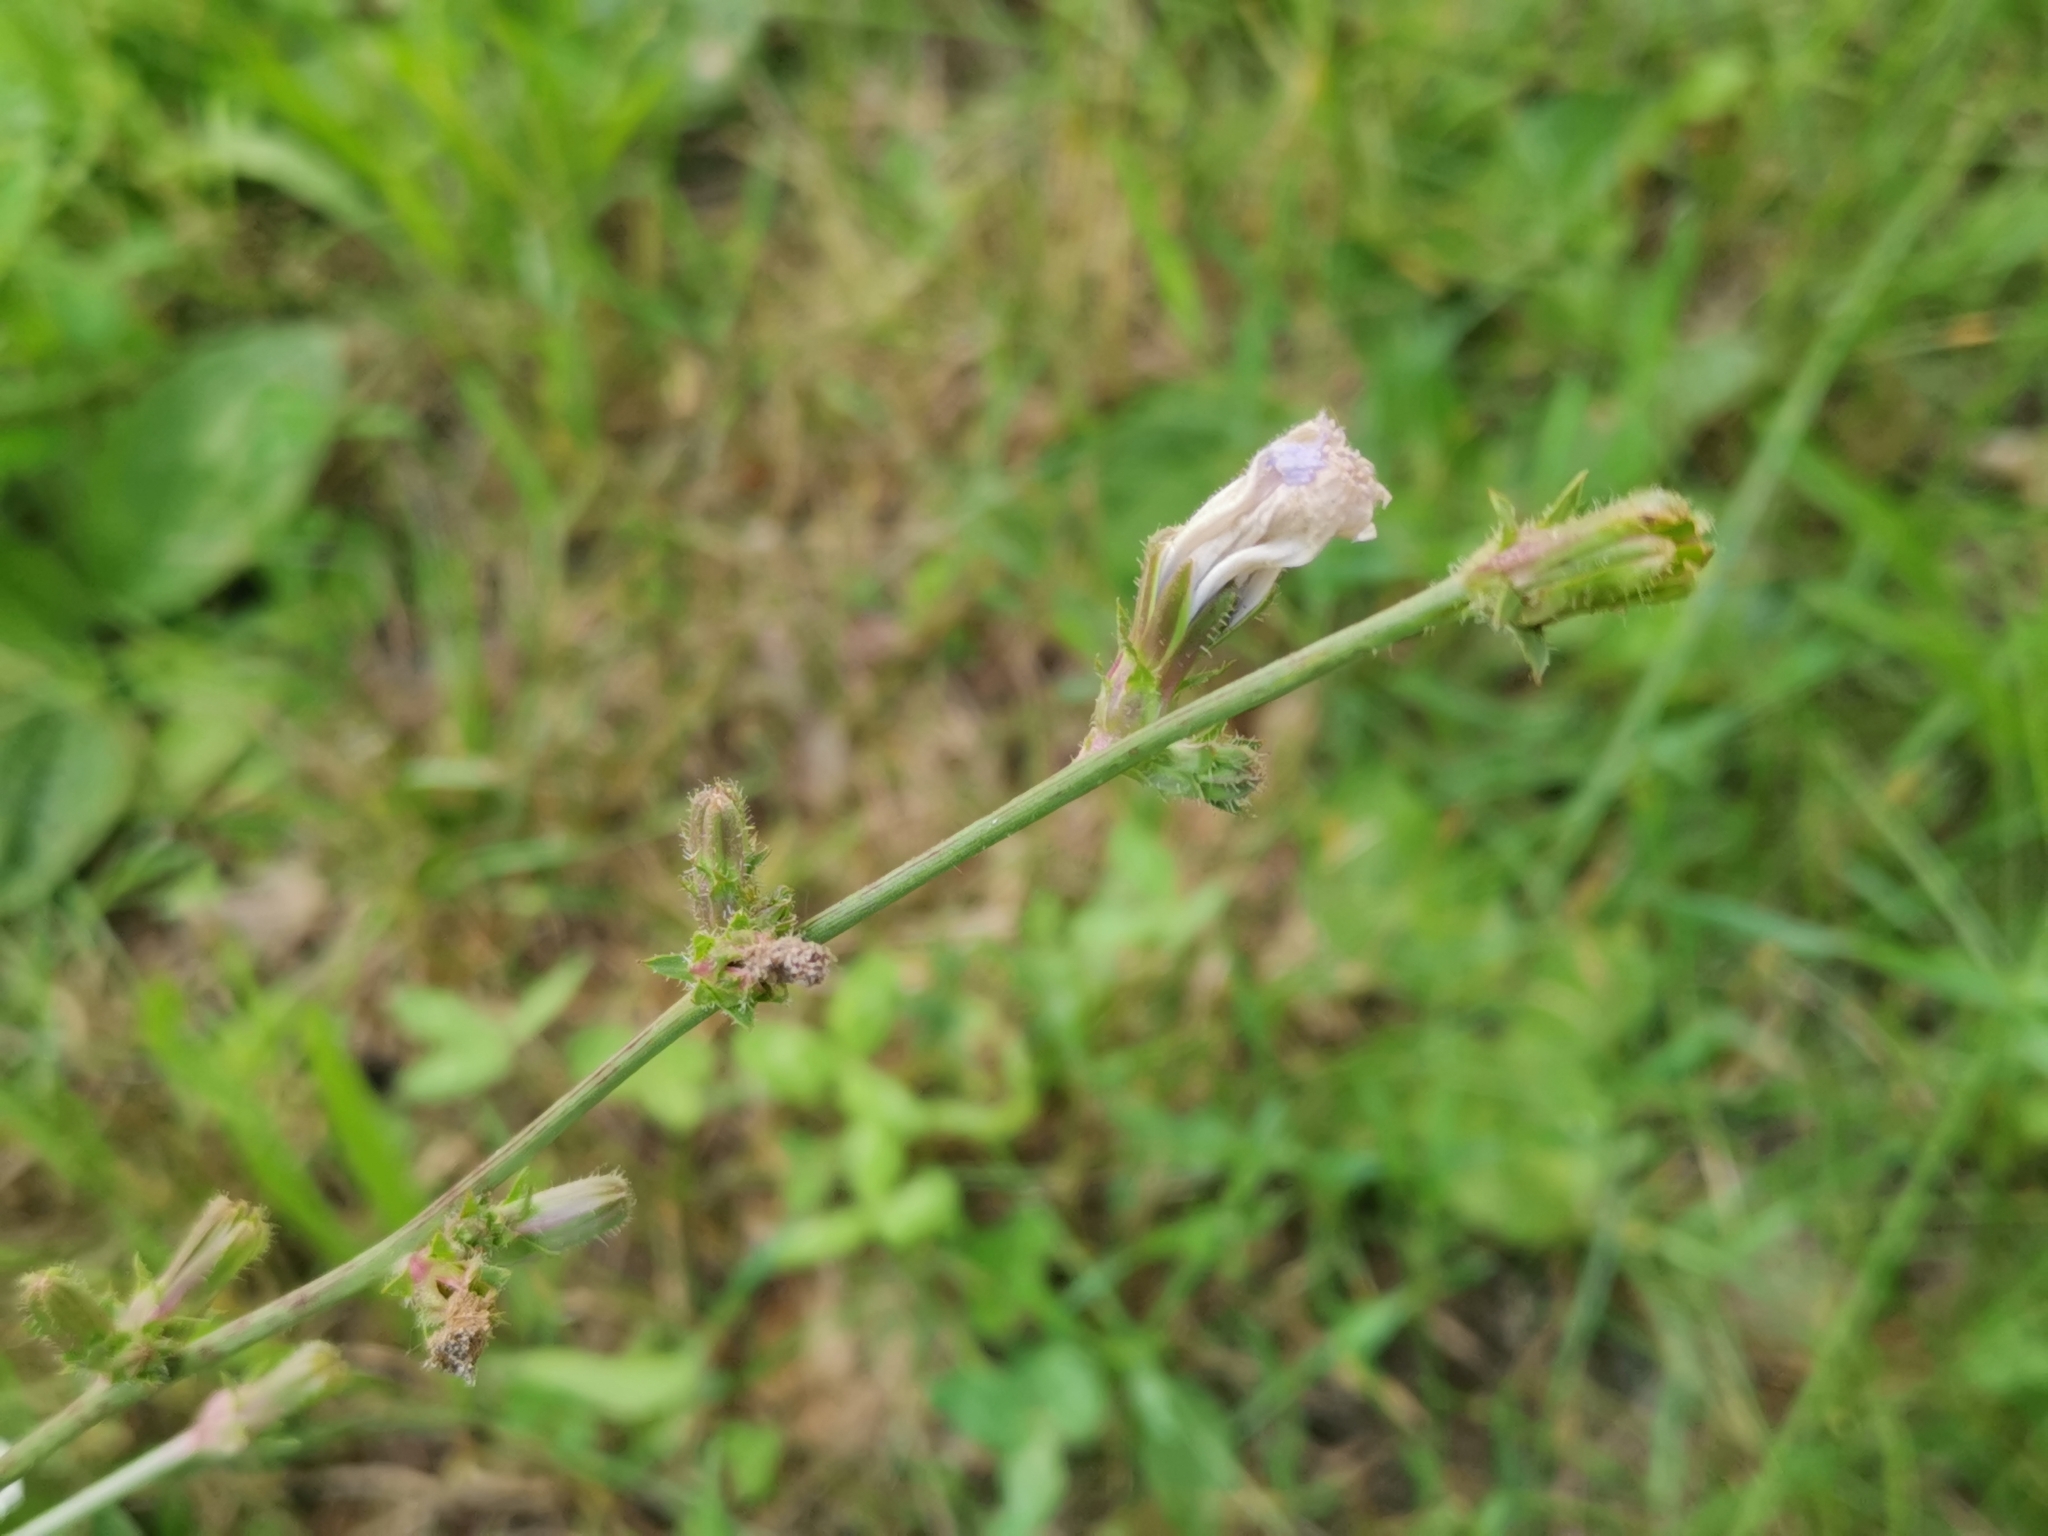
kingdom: Plantae
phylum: Tracheophyta
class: Magnoliopsida
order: Asterales
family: Asteraceae
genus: Cichorium
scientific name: Cichorium intybus
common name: Chicory
